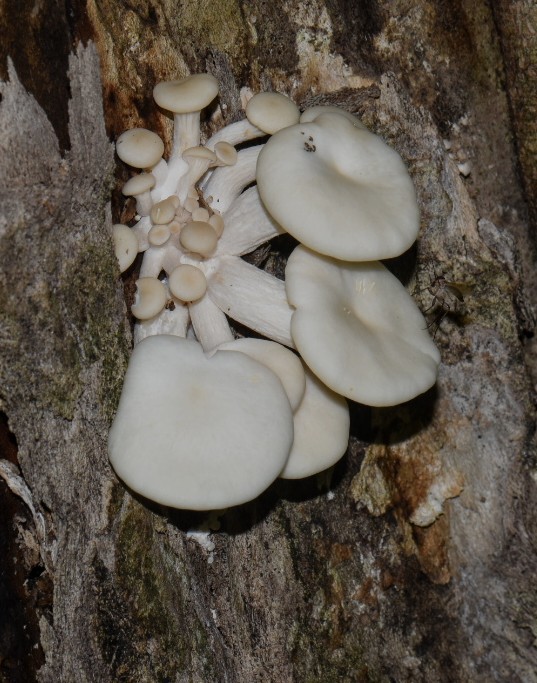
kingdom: Fungi
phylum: Basidiomycota
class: Agaricomycetes
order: Agaricales
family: Pleurotaceae
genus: Pleurotus
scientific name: Pleurotus pulmonarius
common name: Pale oyster
